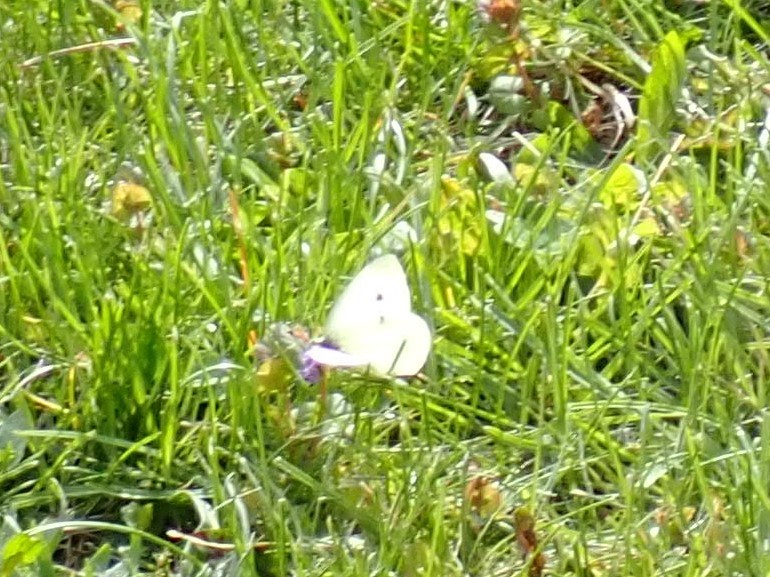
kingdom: Animalia
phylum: Arthropoda
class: Insecta
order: Lepidoptera
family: Pieridae
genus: Pieris
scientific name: Pieris rapae
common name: Small white
